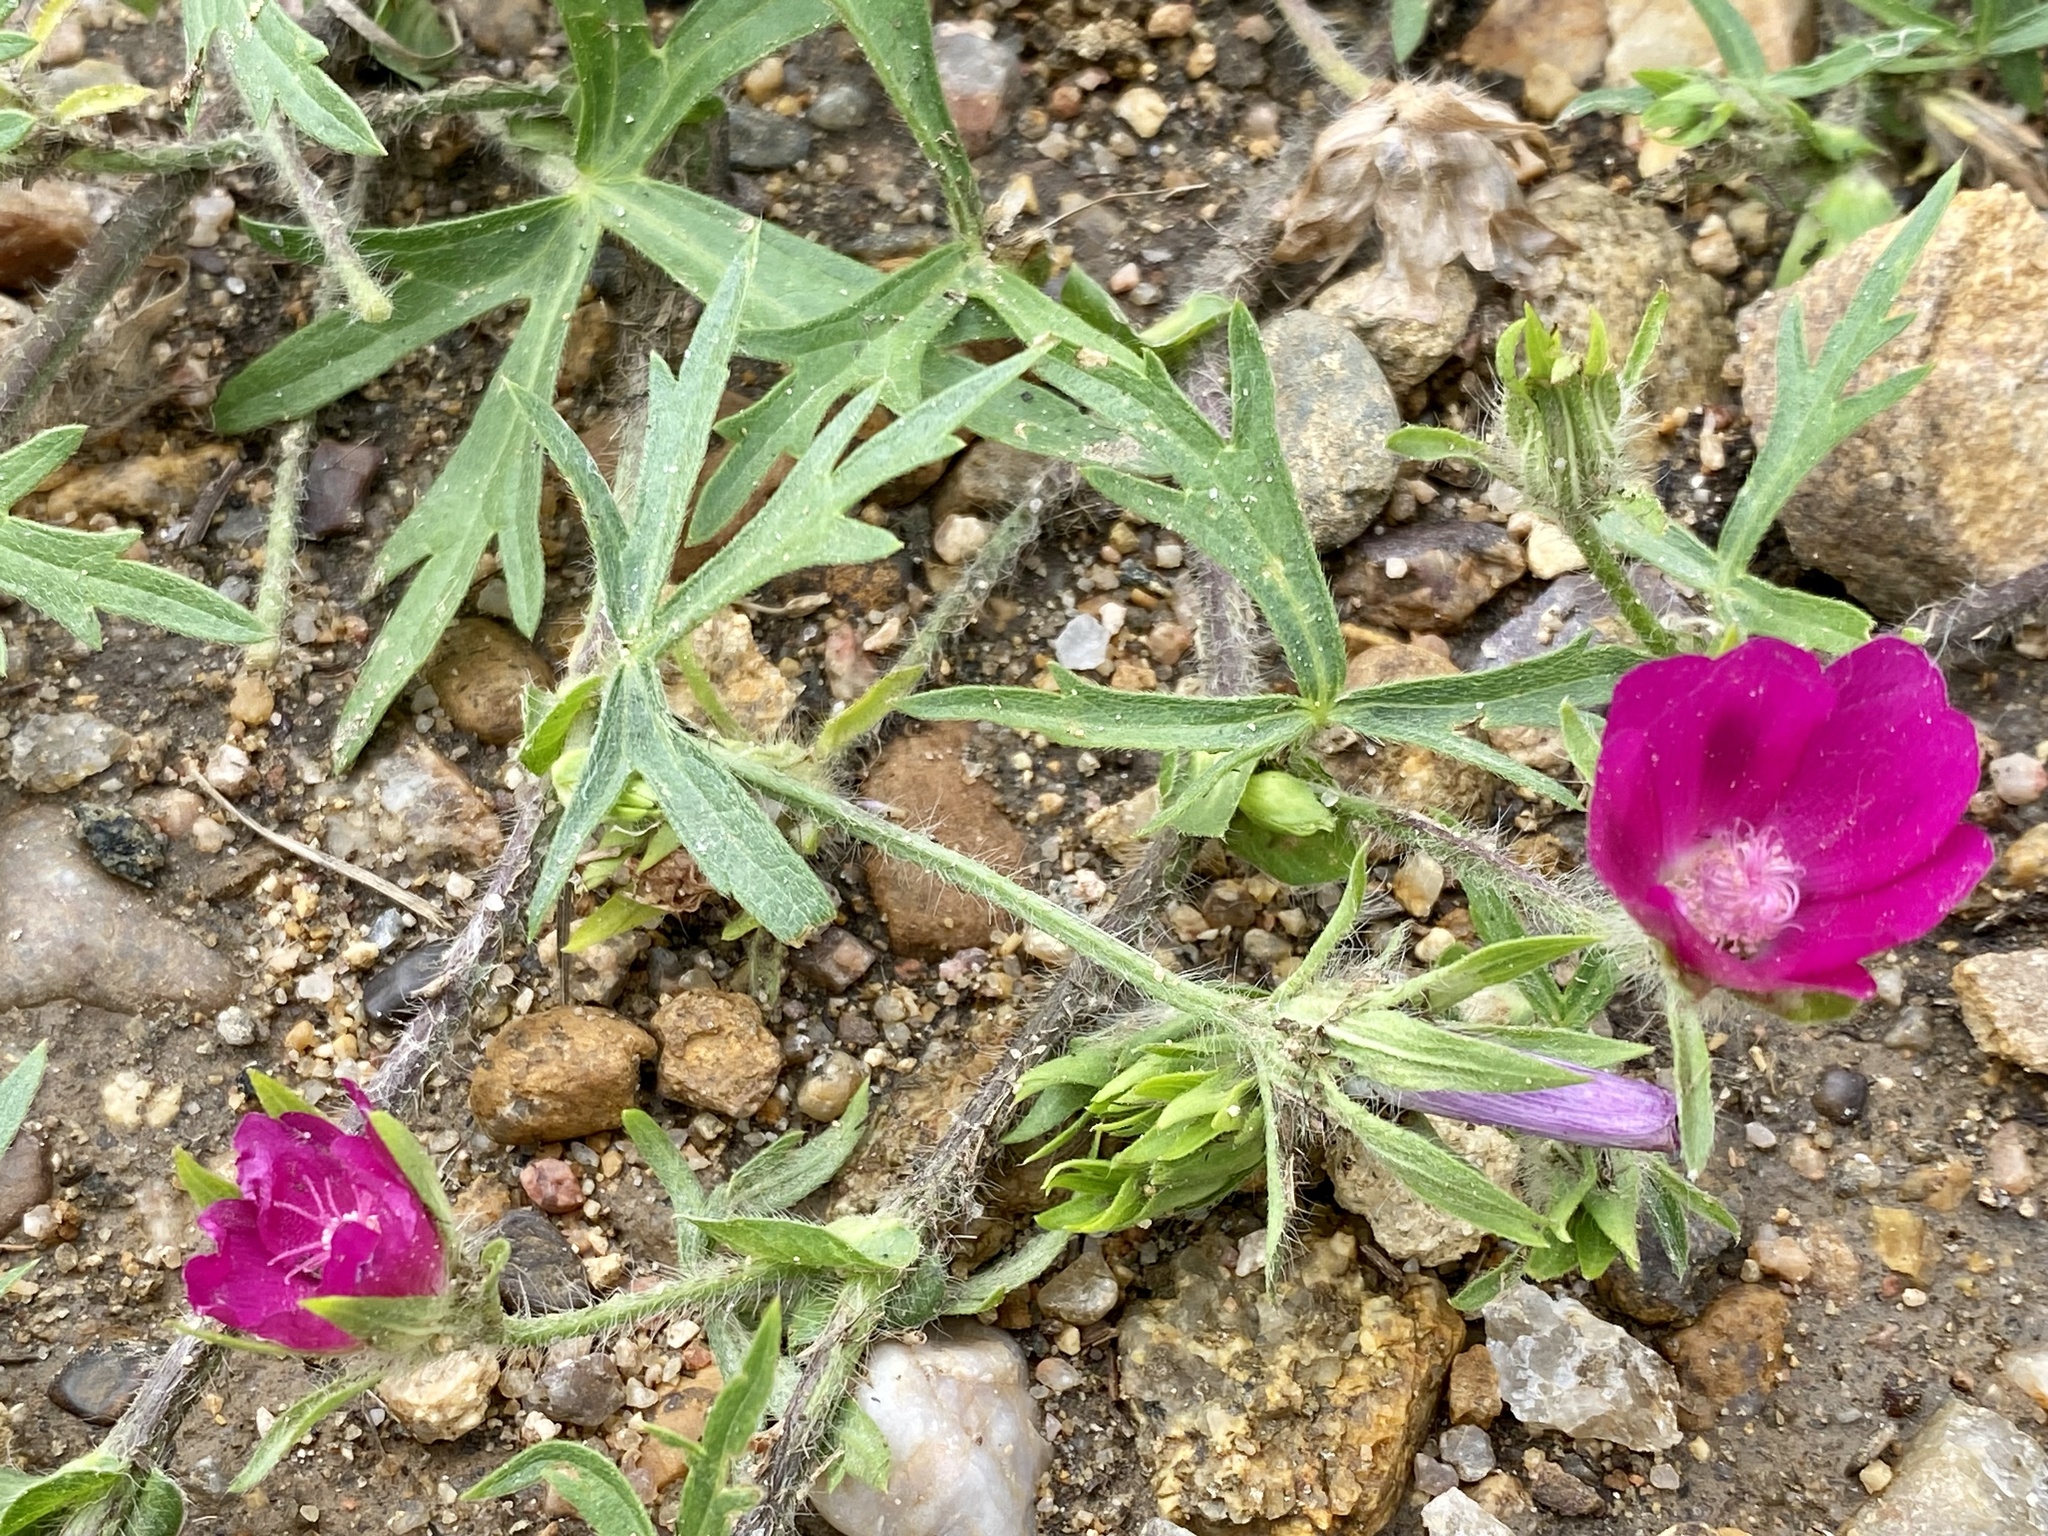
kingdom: Plantae
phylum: Tracheophyta
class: Magnoliopsida
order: Malvales
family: Malvaceae
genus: Callirhoe
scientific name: Callirhoe involucrata
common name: Purple poppy-mallow
